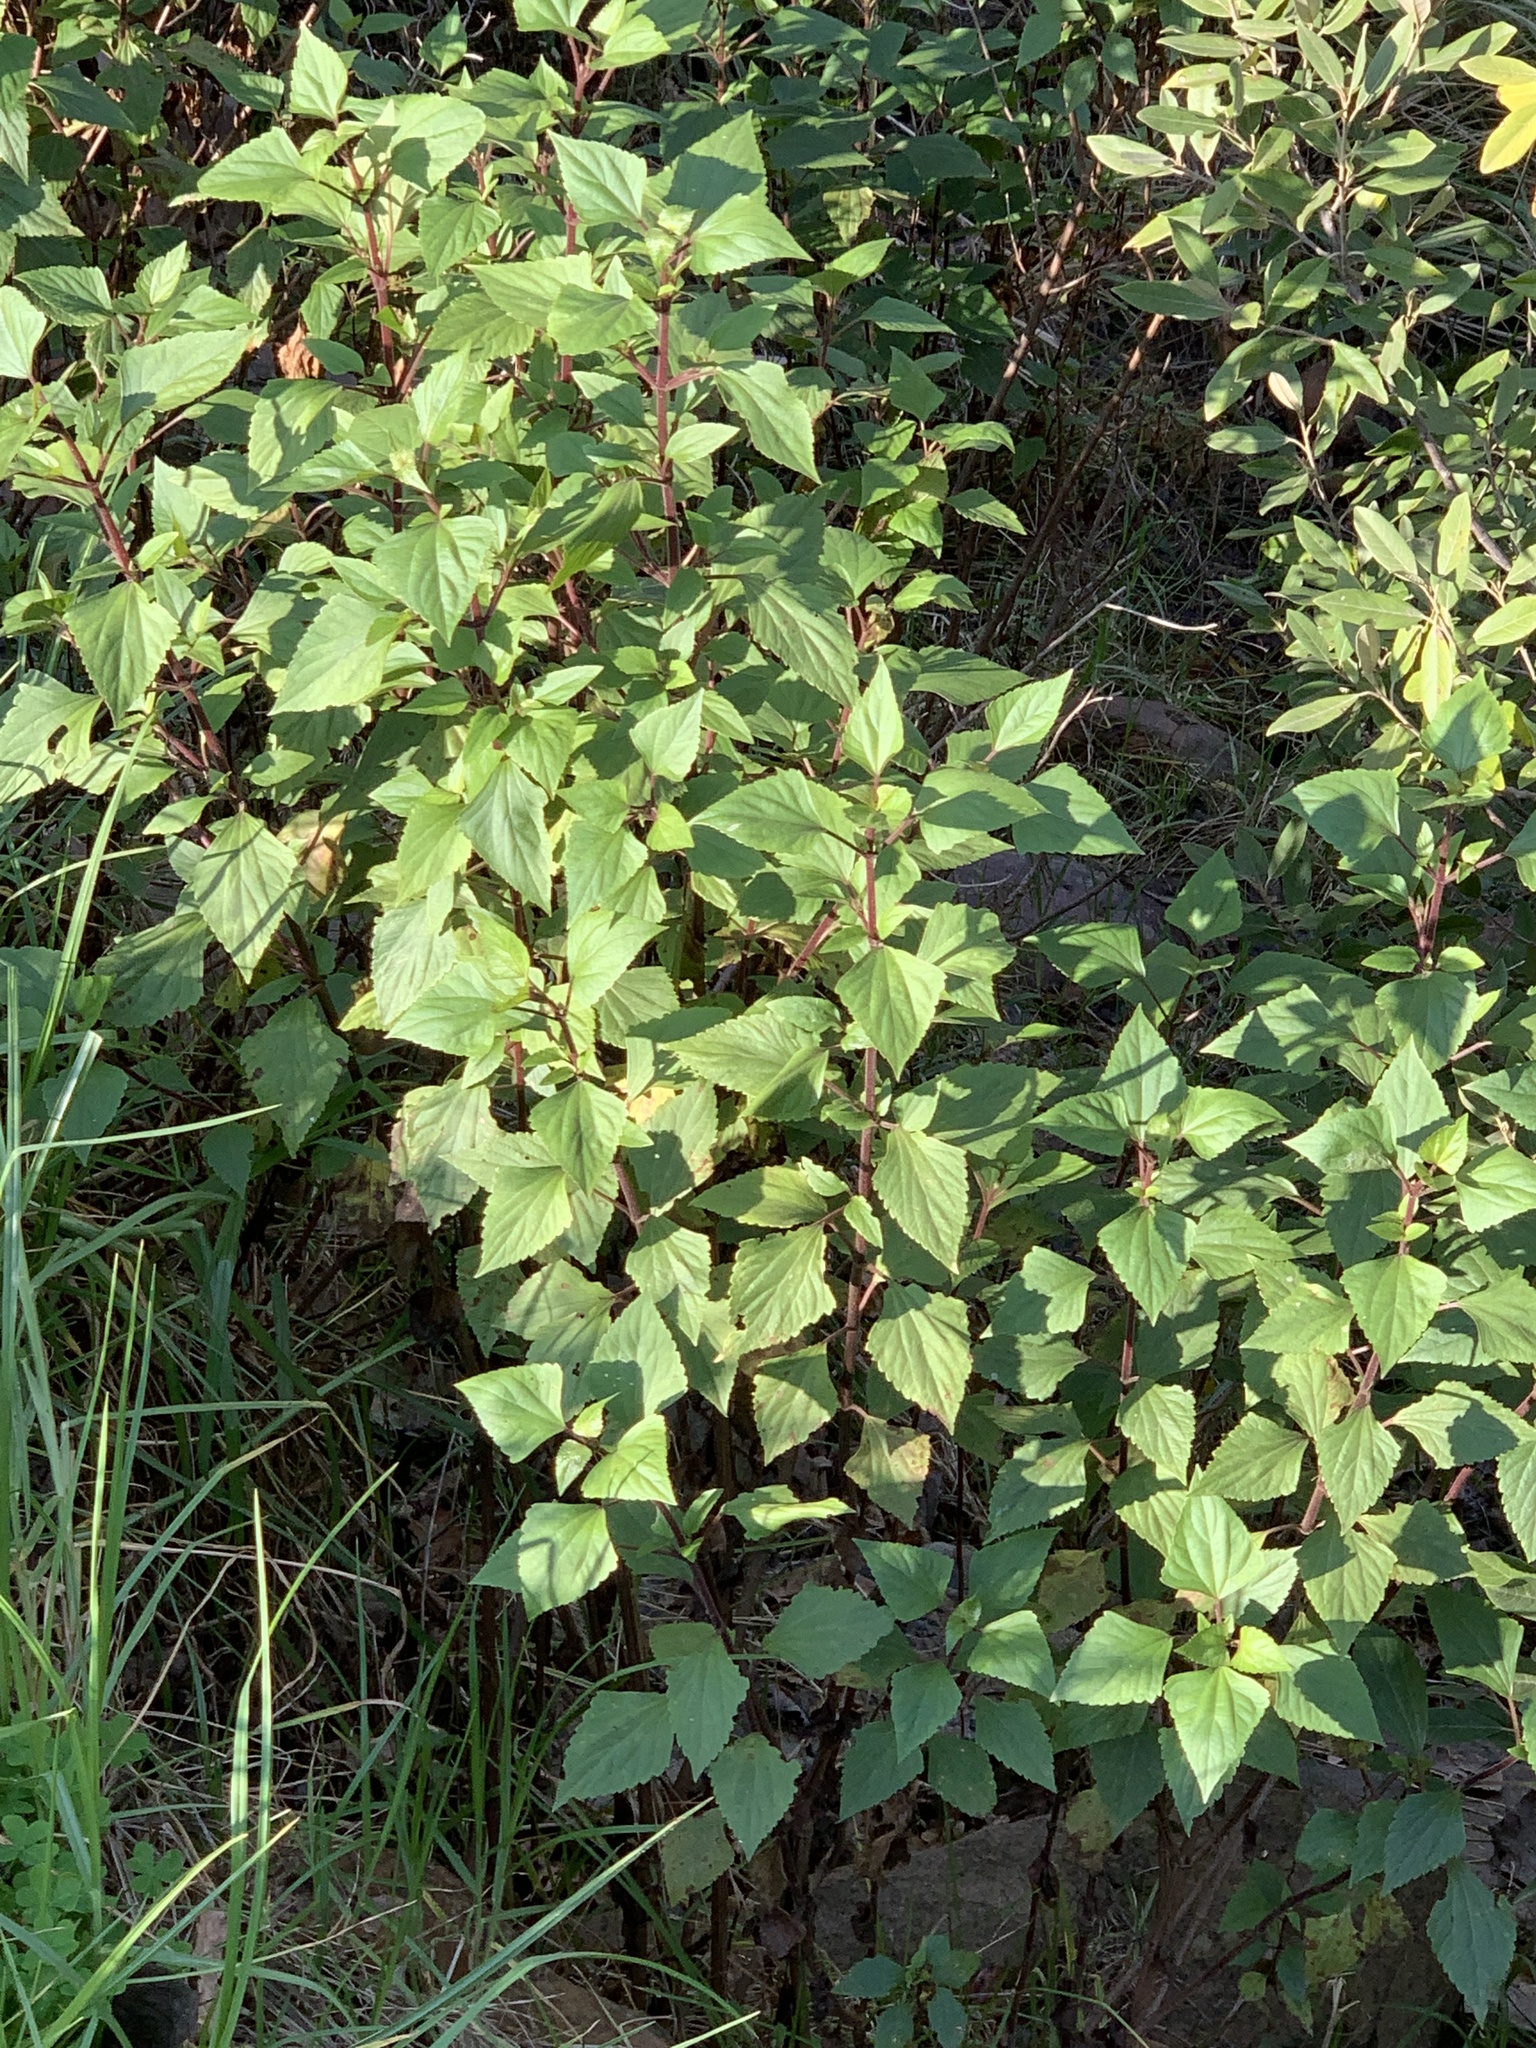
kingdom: Plantae
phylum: Tracheophyta
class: Magnoliopsida
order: Asterales
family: Asteraceae
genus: Ageratina
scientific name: Ageratina adenophora
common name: Sticky snakeroot
